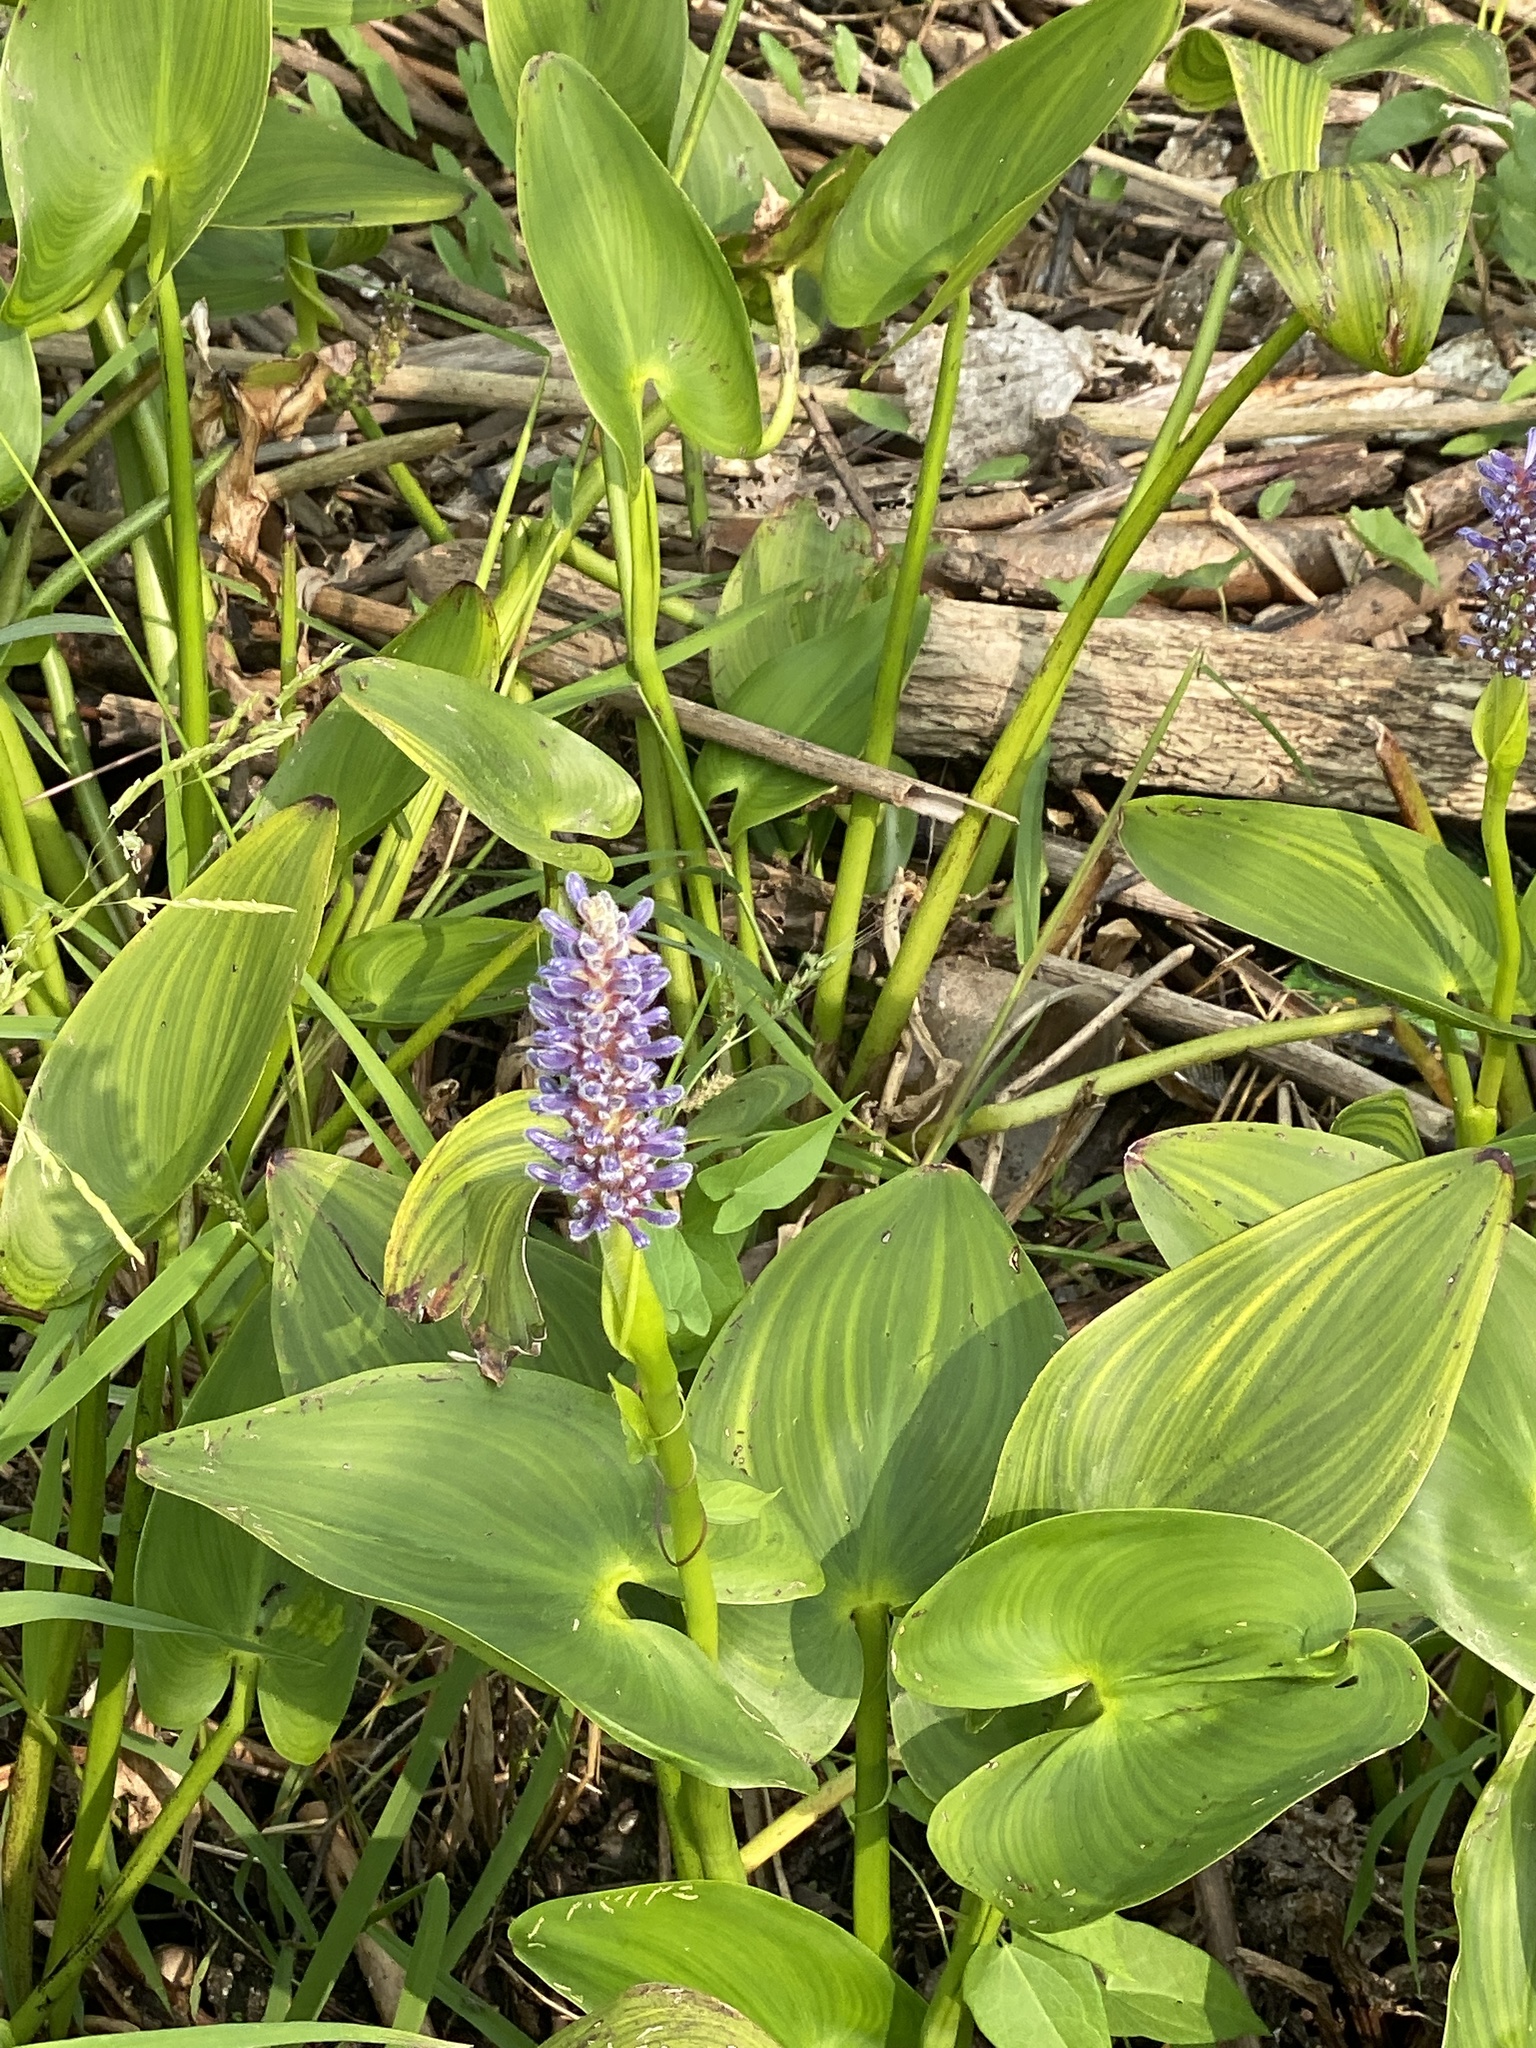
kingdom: Plantae
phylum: Tracheophyta
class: Liliopsida
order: Commelinales
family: Pontederiaceae
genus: Pontederia
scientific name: Pontederia cordata
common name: Pickerelweed
